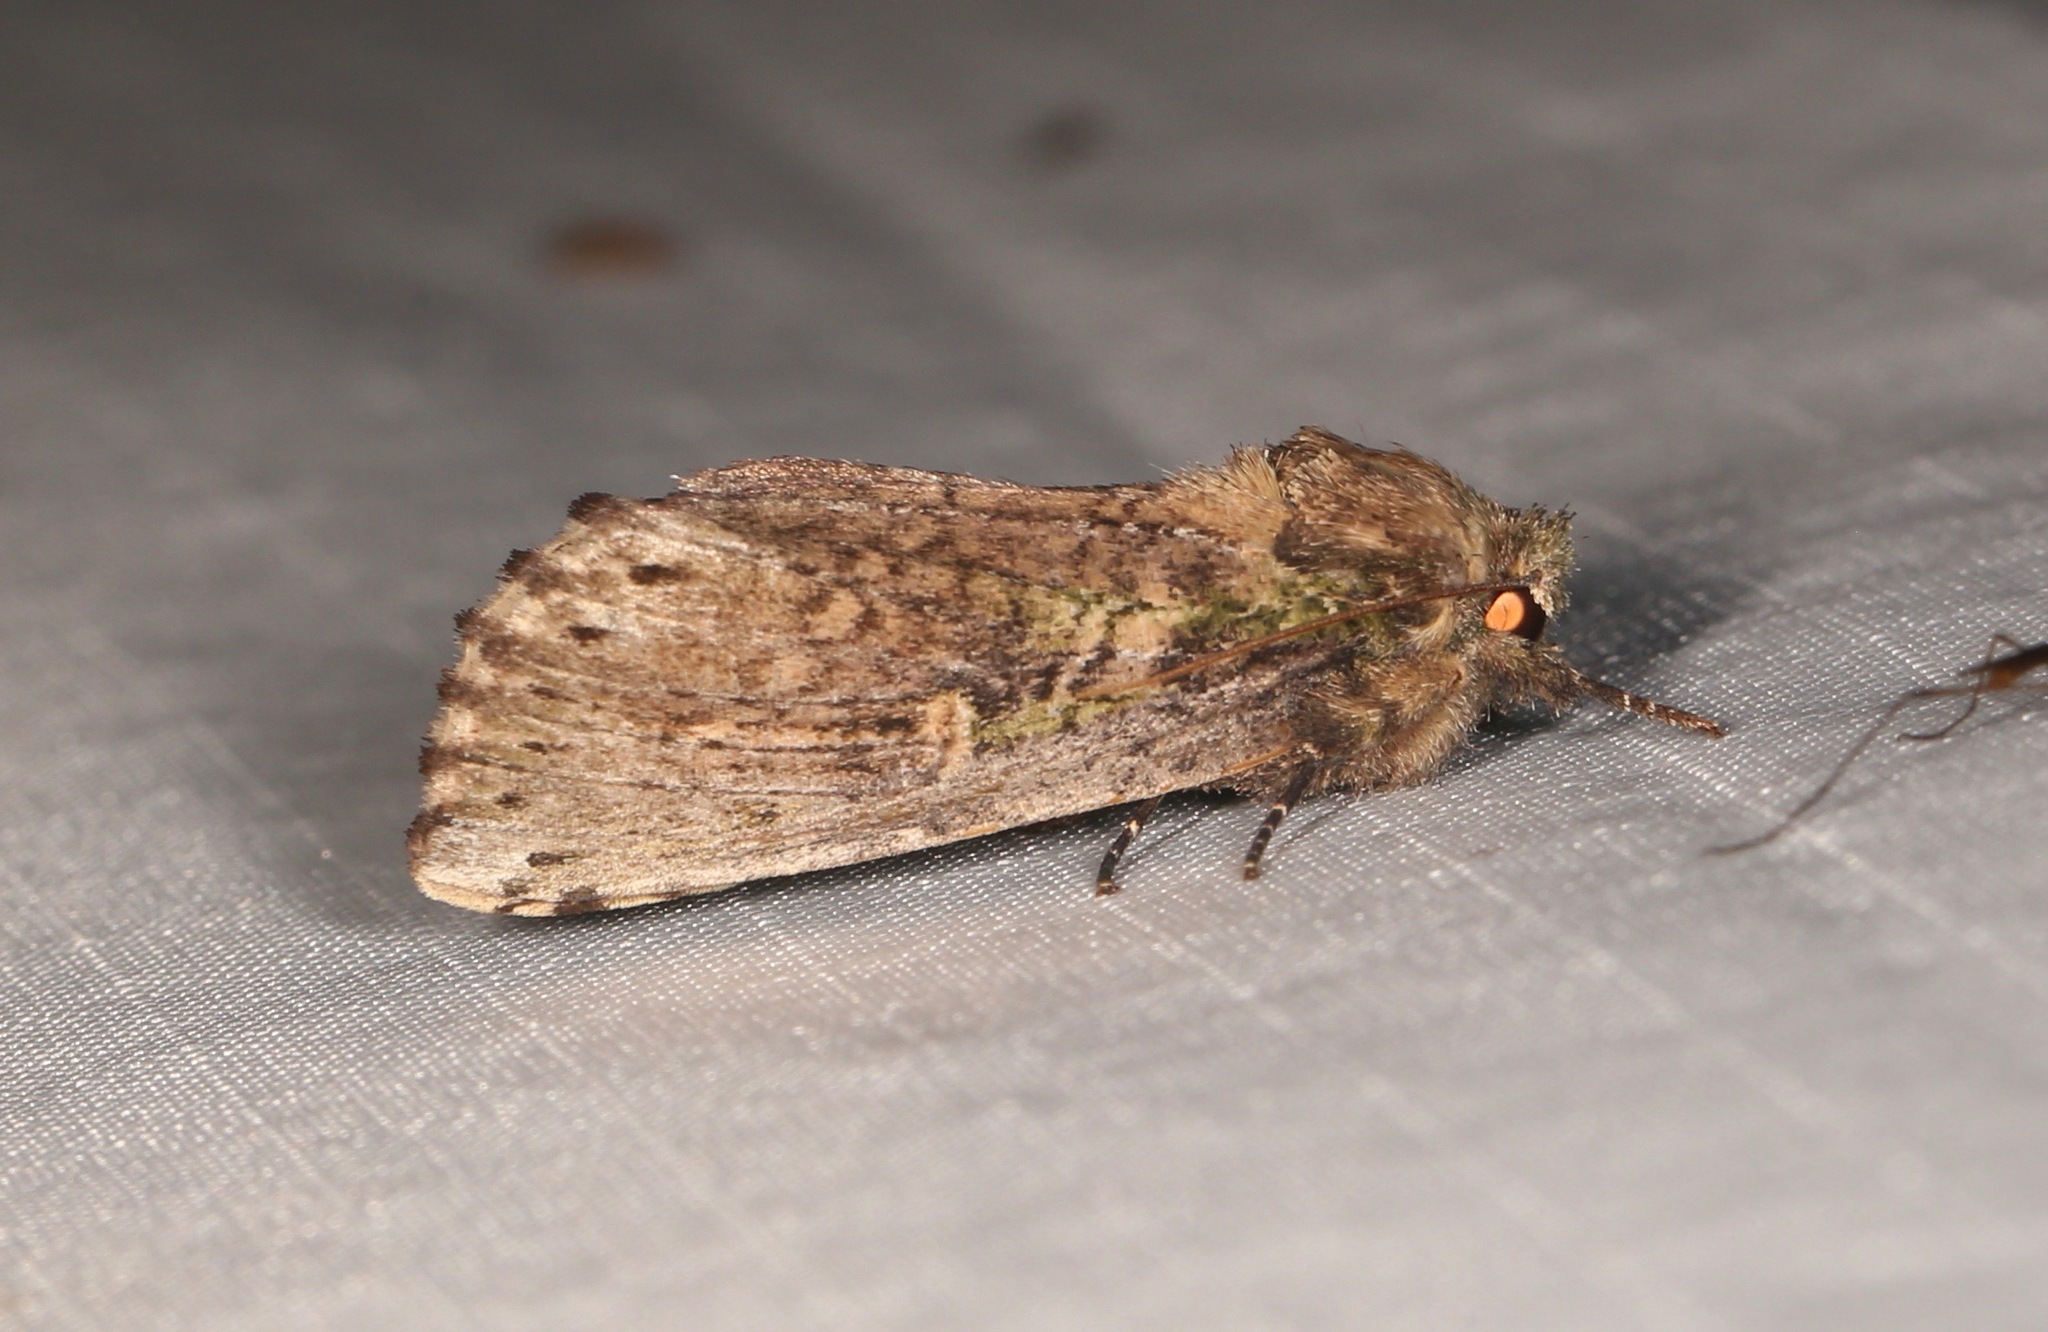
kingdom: Animalia
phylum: Arthropoda
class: Insecta
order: Lepidoptera
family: Notodontidae
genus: Schizura
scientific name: Schizura ipomaeae
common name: Morning-glory prominent
